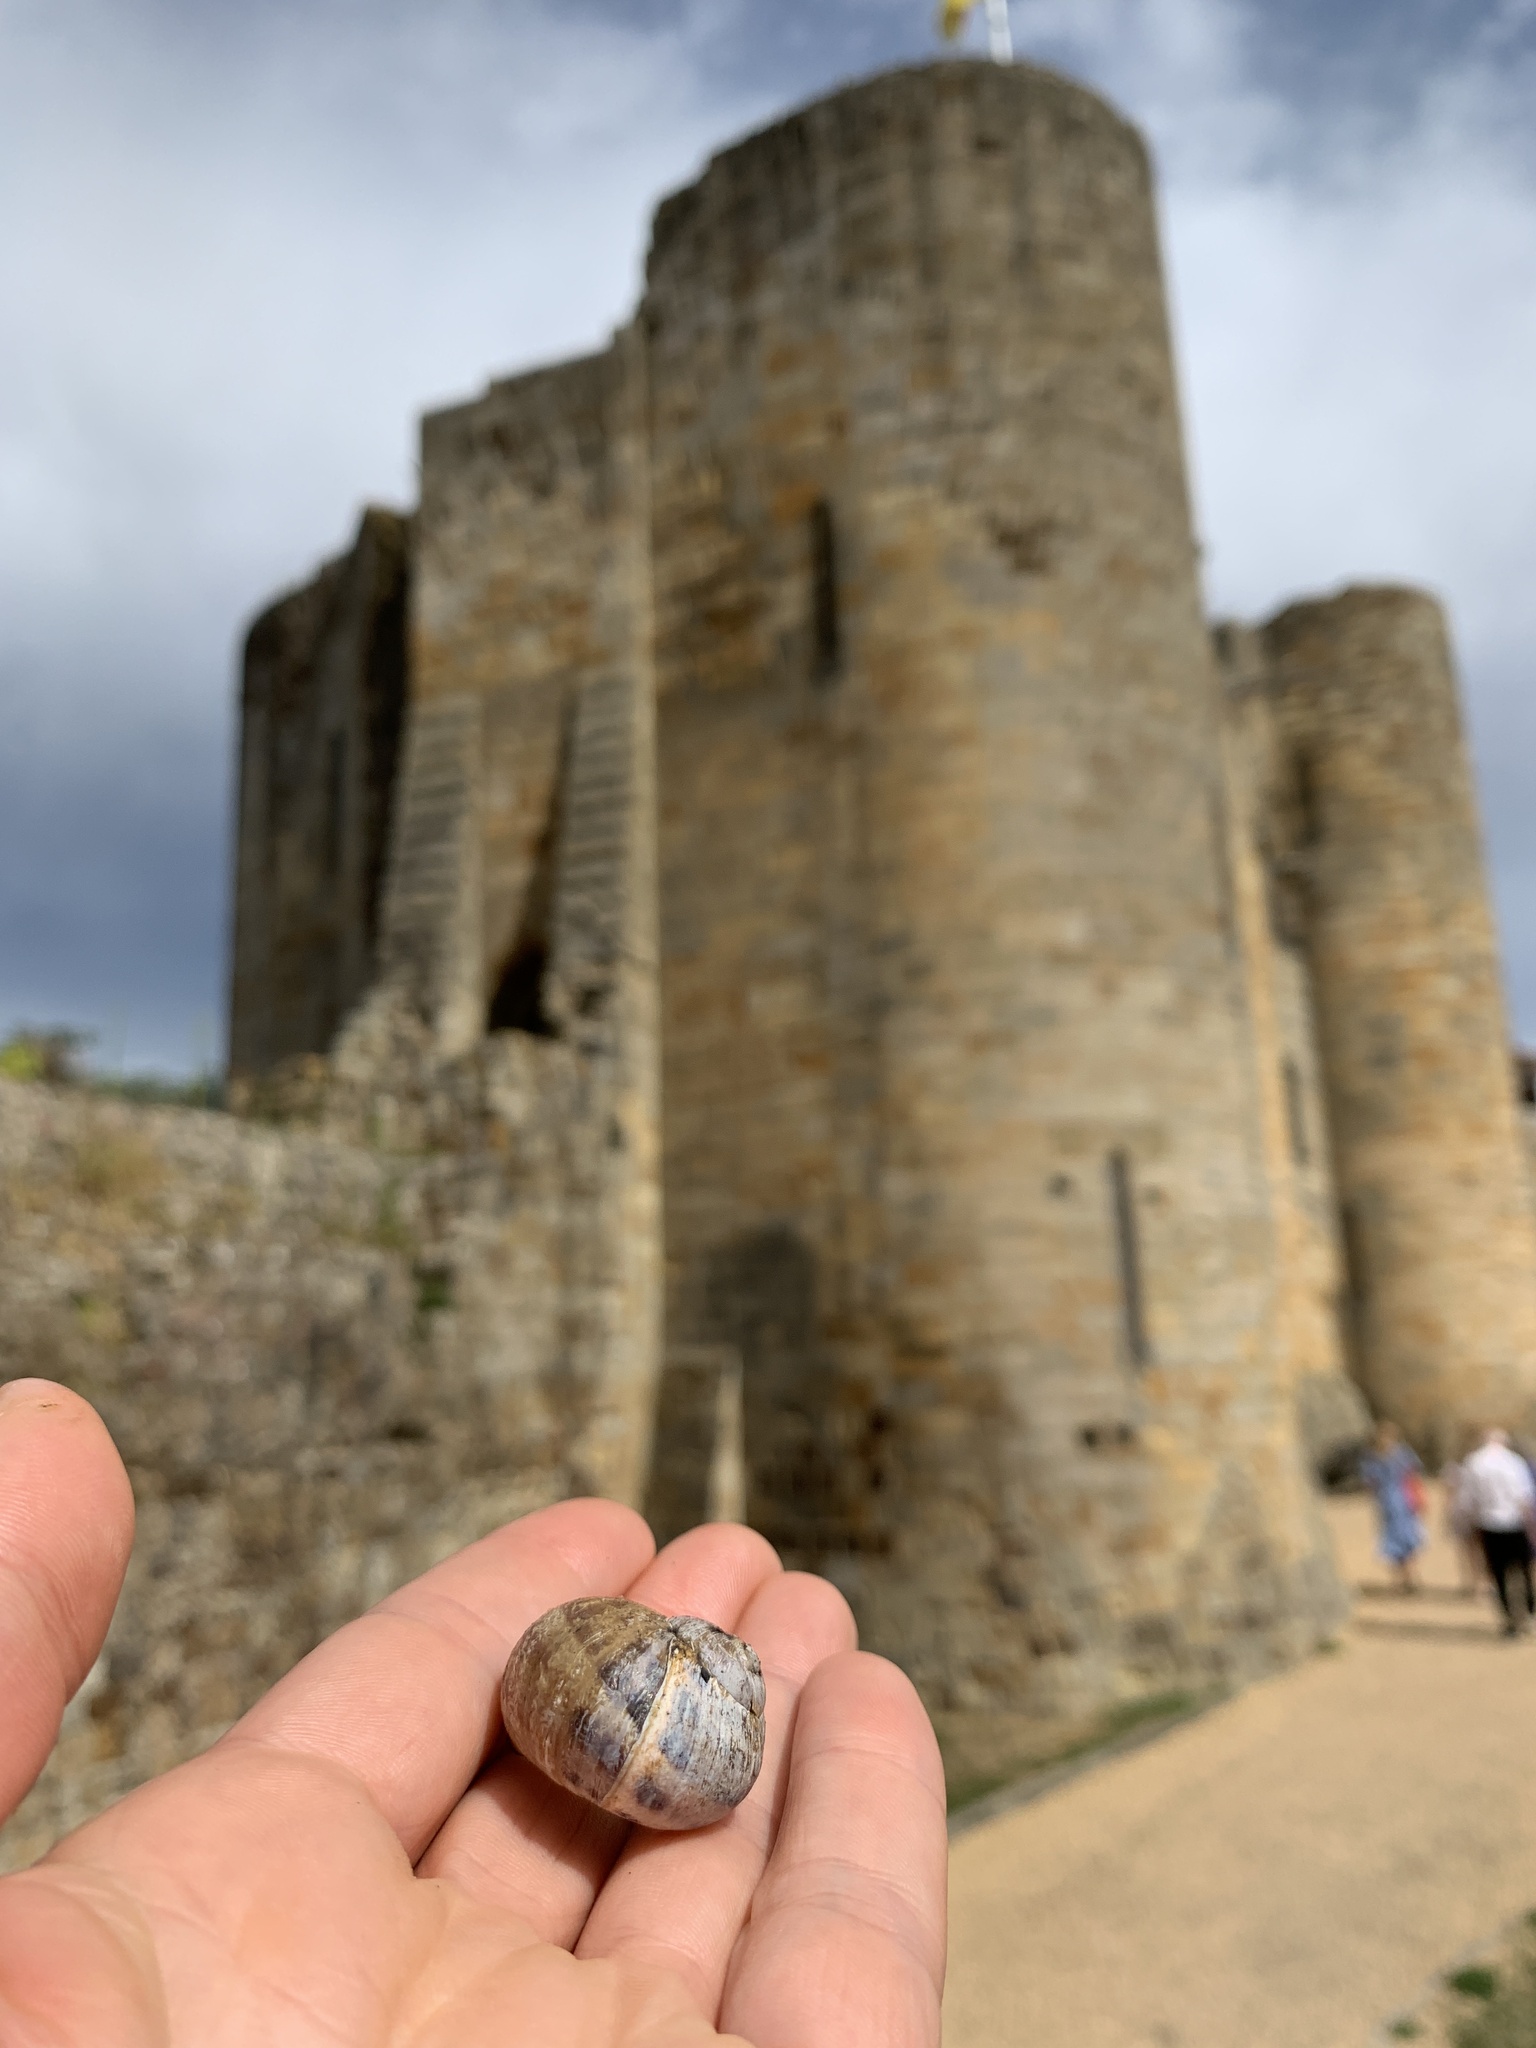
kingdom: Animalia
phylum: Mollusca
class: Gastropoda
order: Stylommatophora
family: Helicidae
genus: Cornu
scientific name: Cornu aspersum
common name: Brown garden snail
